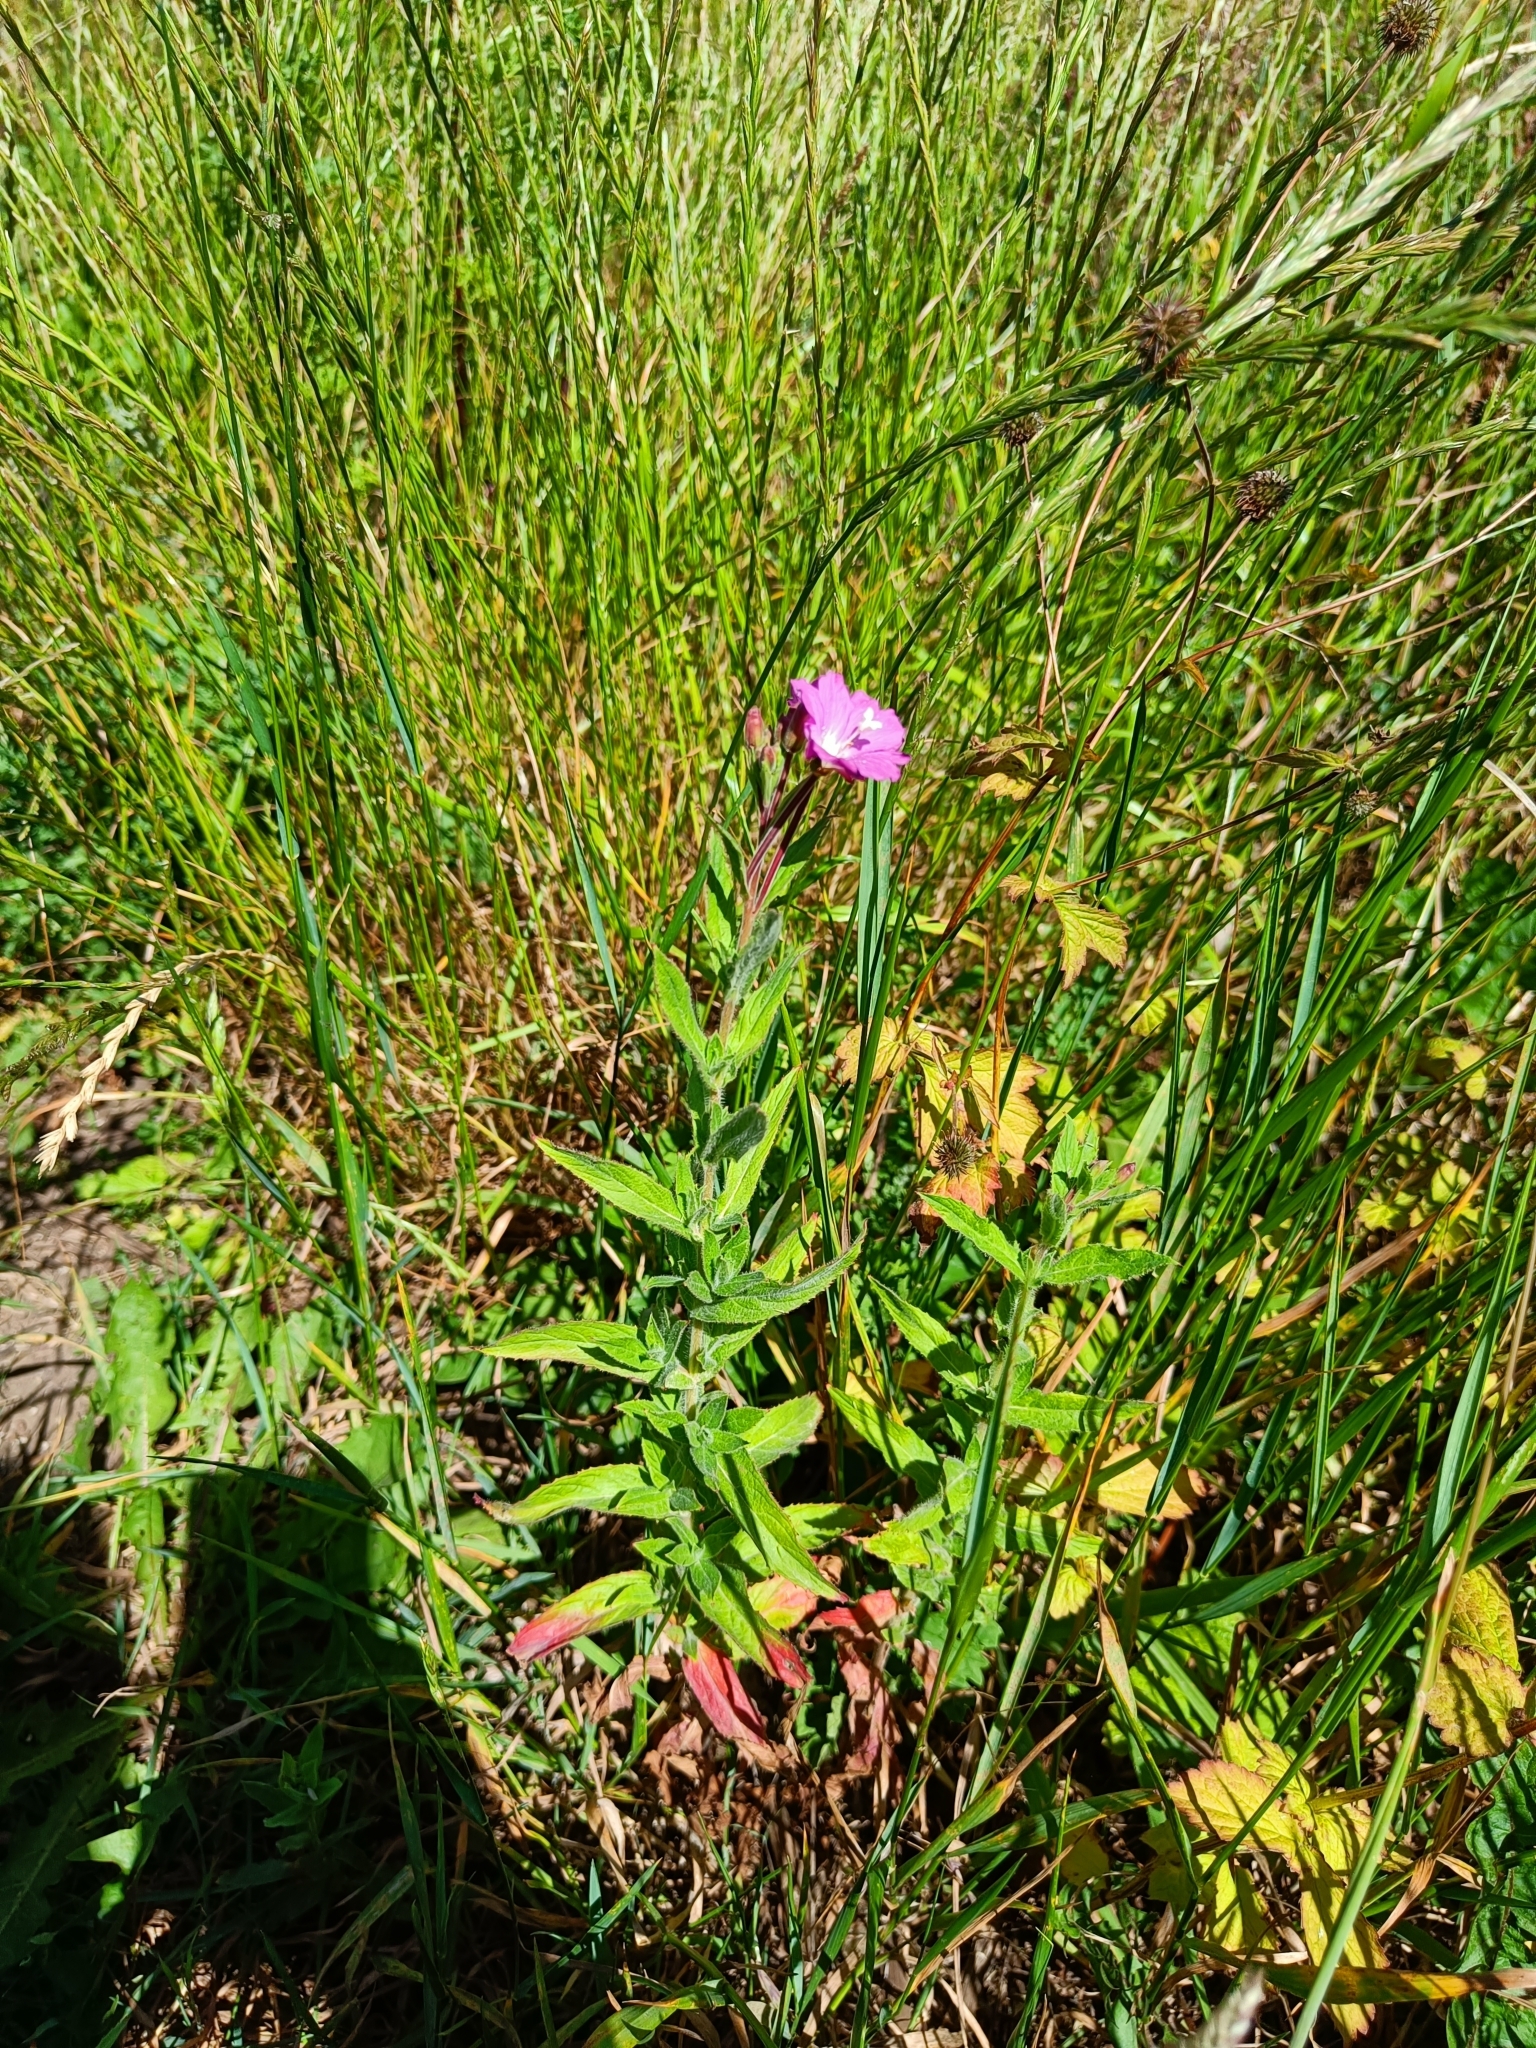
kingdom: Plantae
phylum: Tracheophyta
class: Magnoliopsida
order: Myrtales
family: Onagraceae
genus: Epilobium
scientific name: Epilobium hirsutum
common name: Great willowherb
